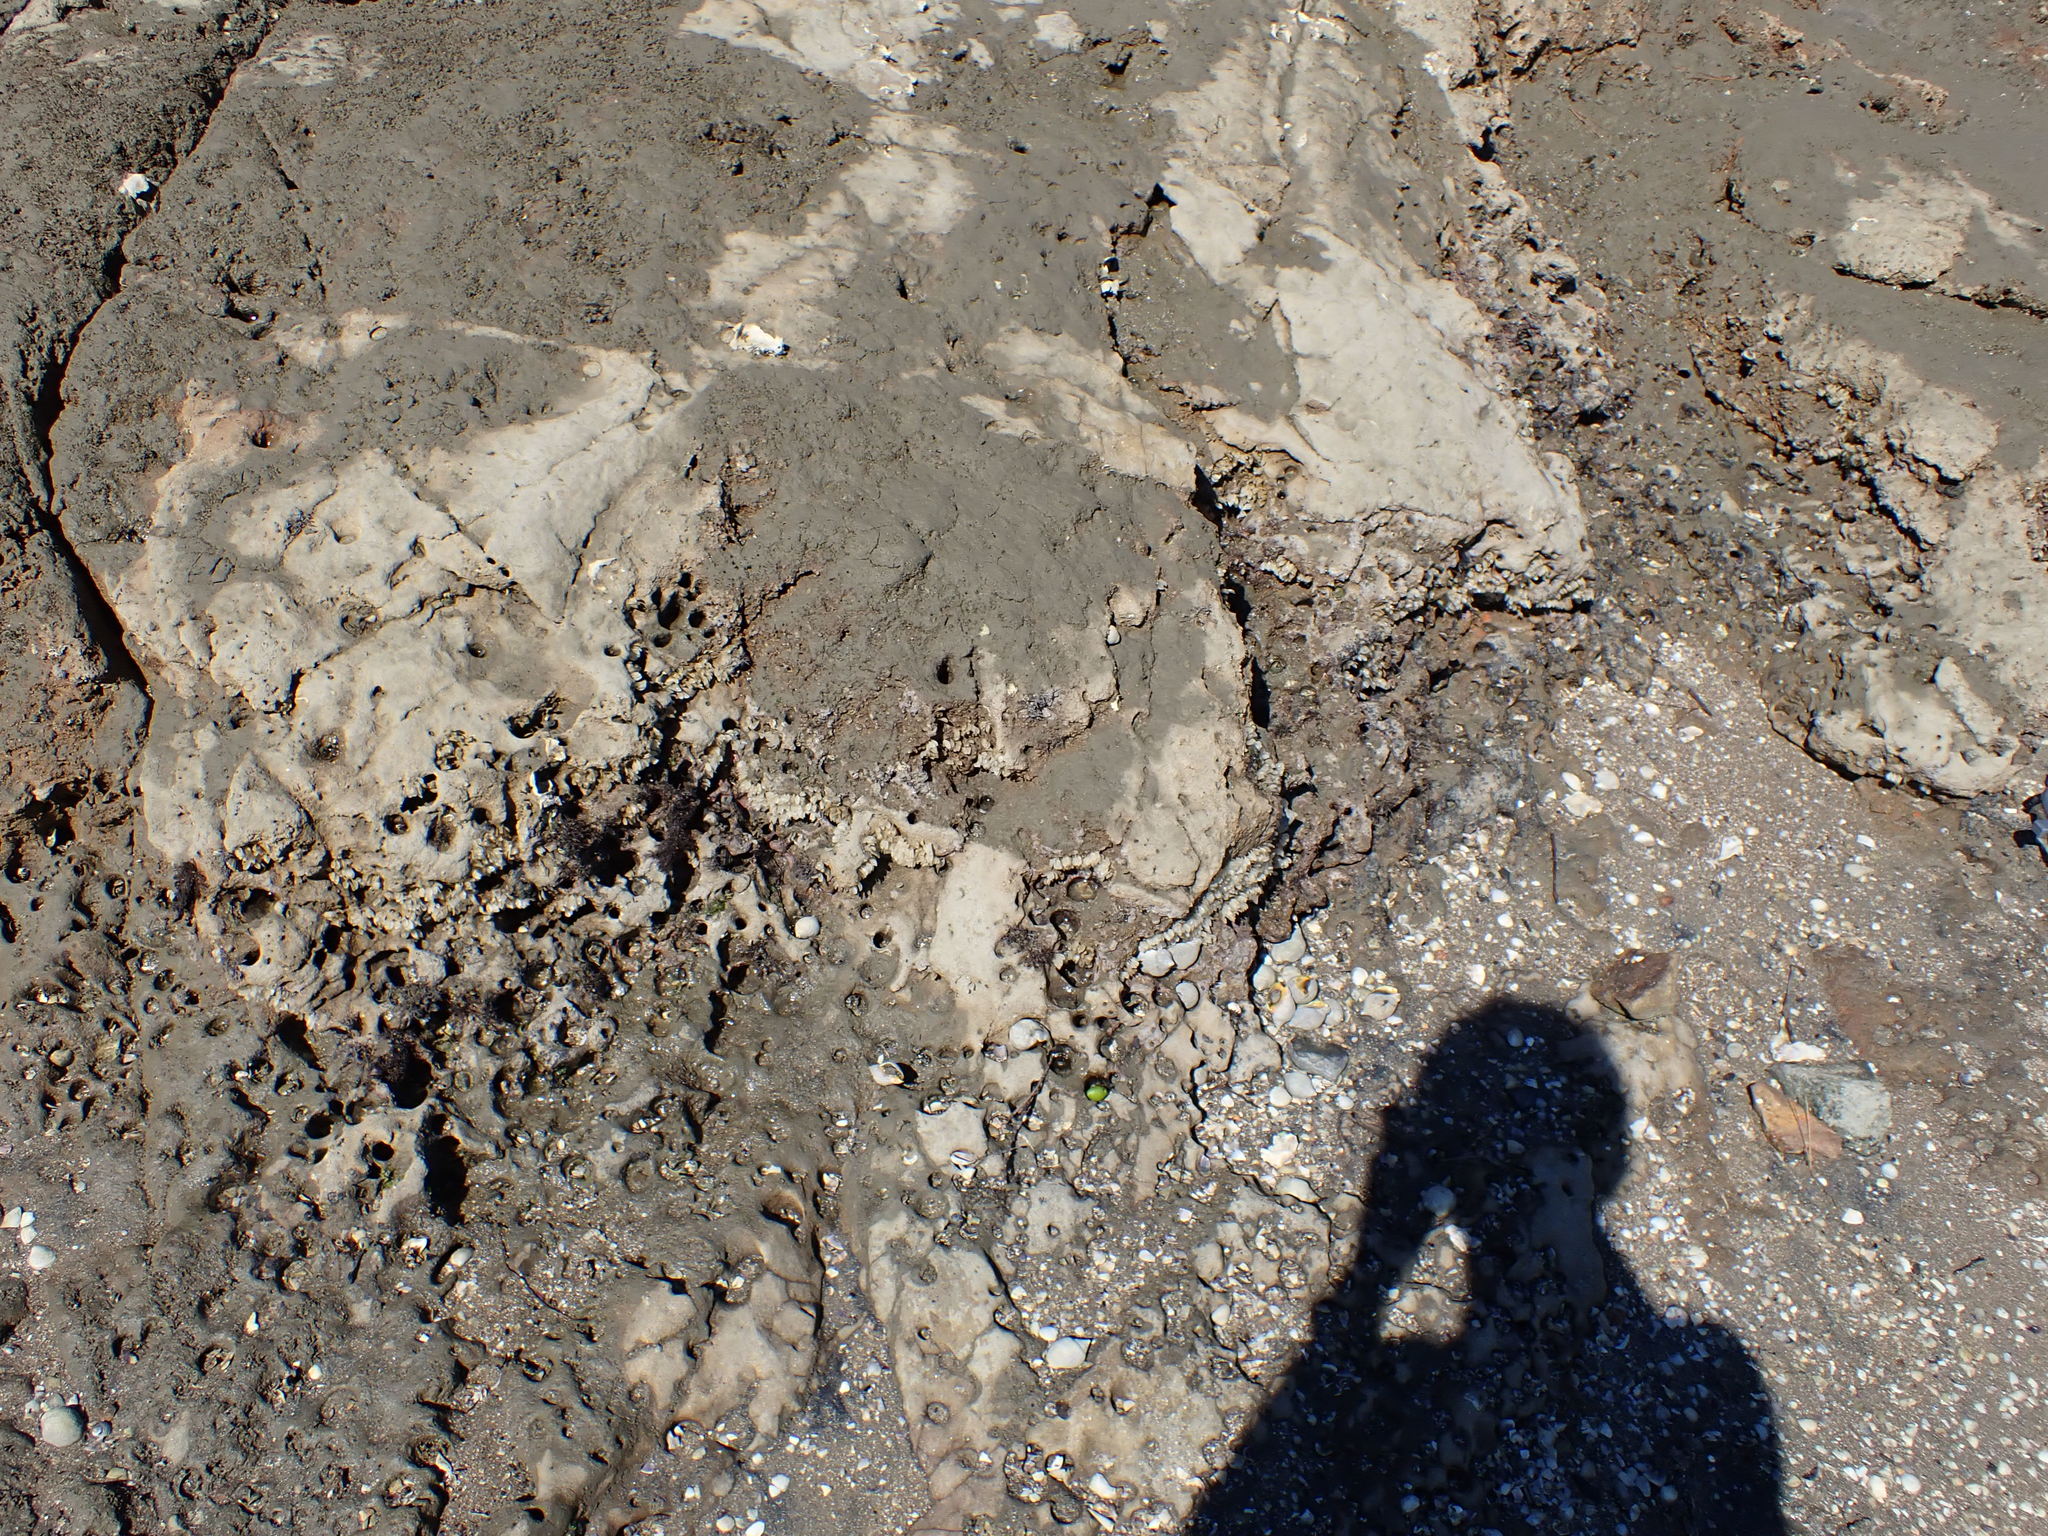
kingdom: Animalia
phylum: Mollusca
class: Gastropoda
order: Neogastropoda
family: Cominellidae
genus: Cominella
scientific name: Cominella adspersa
